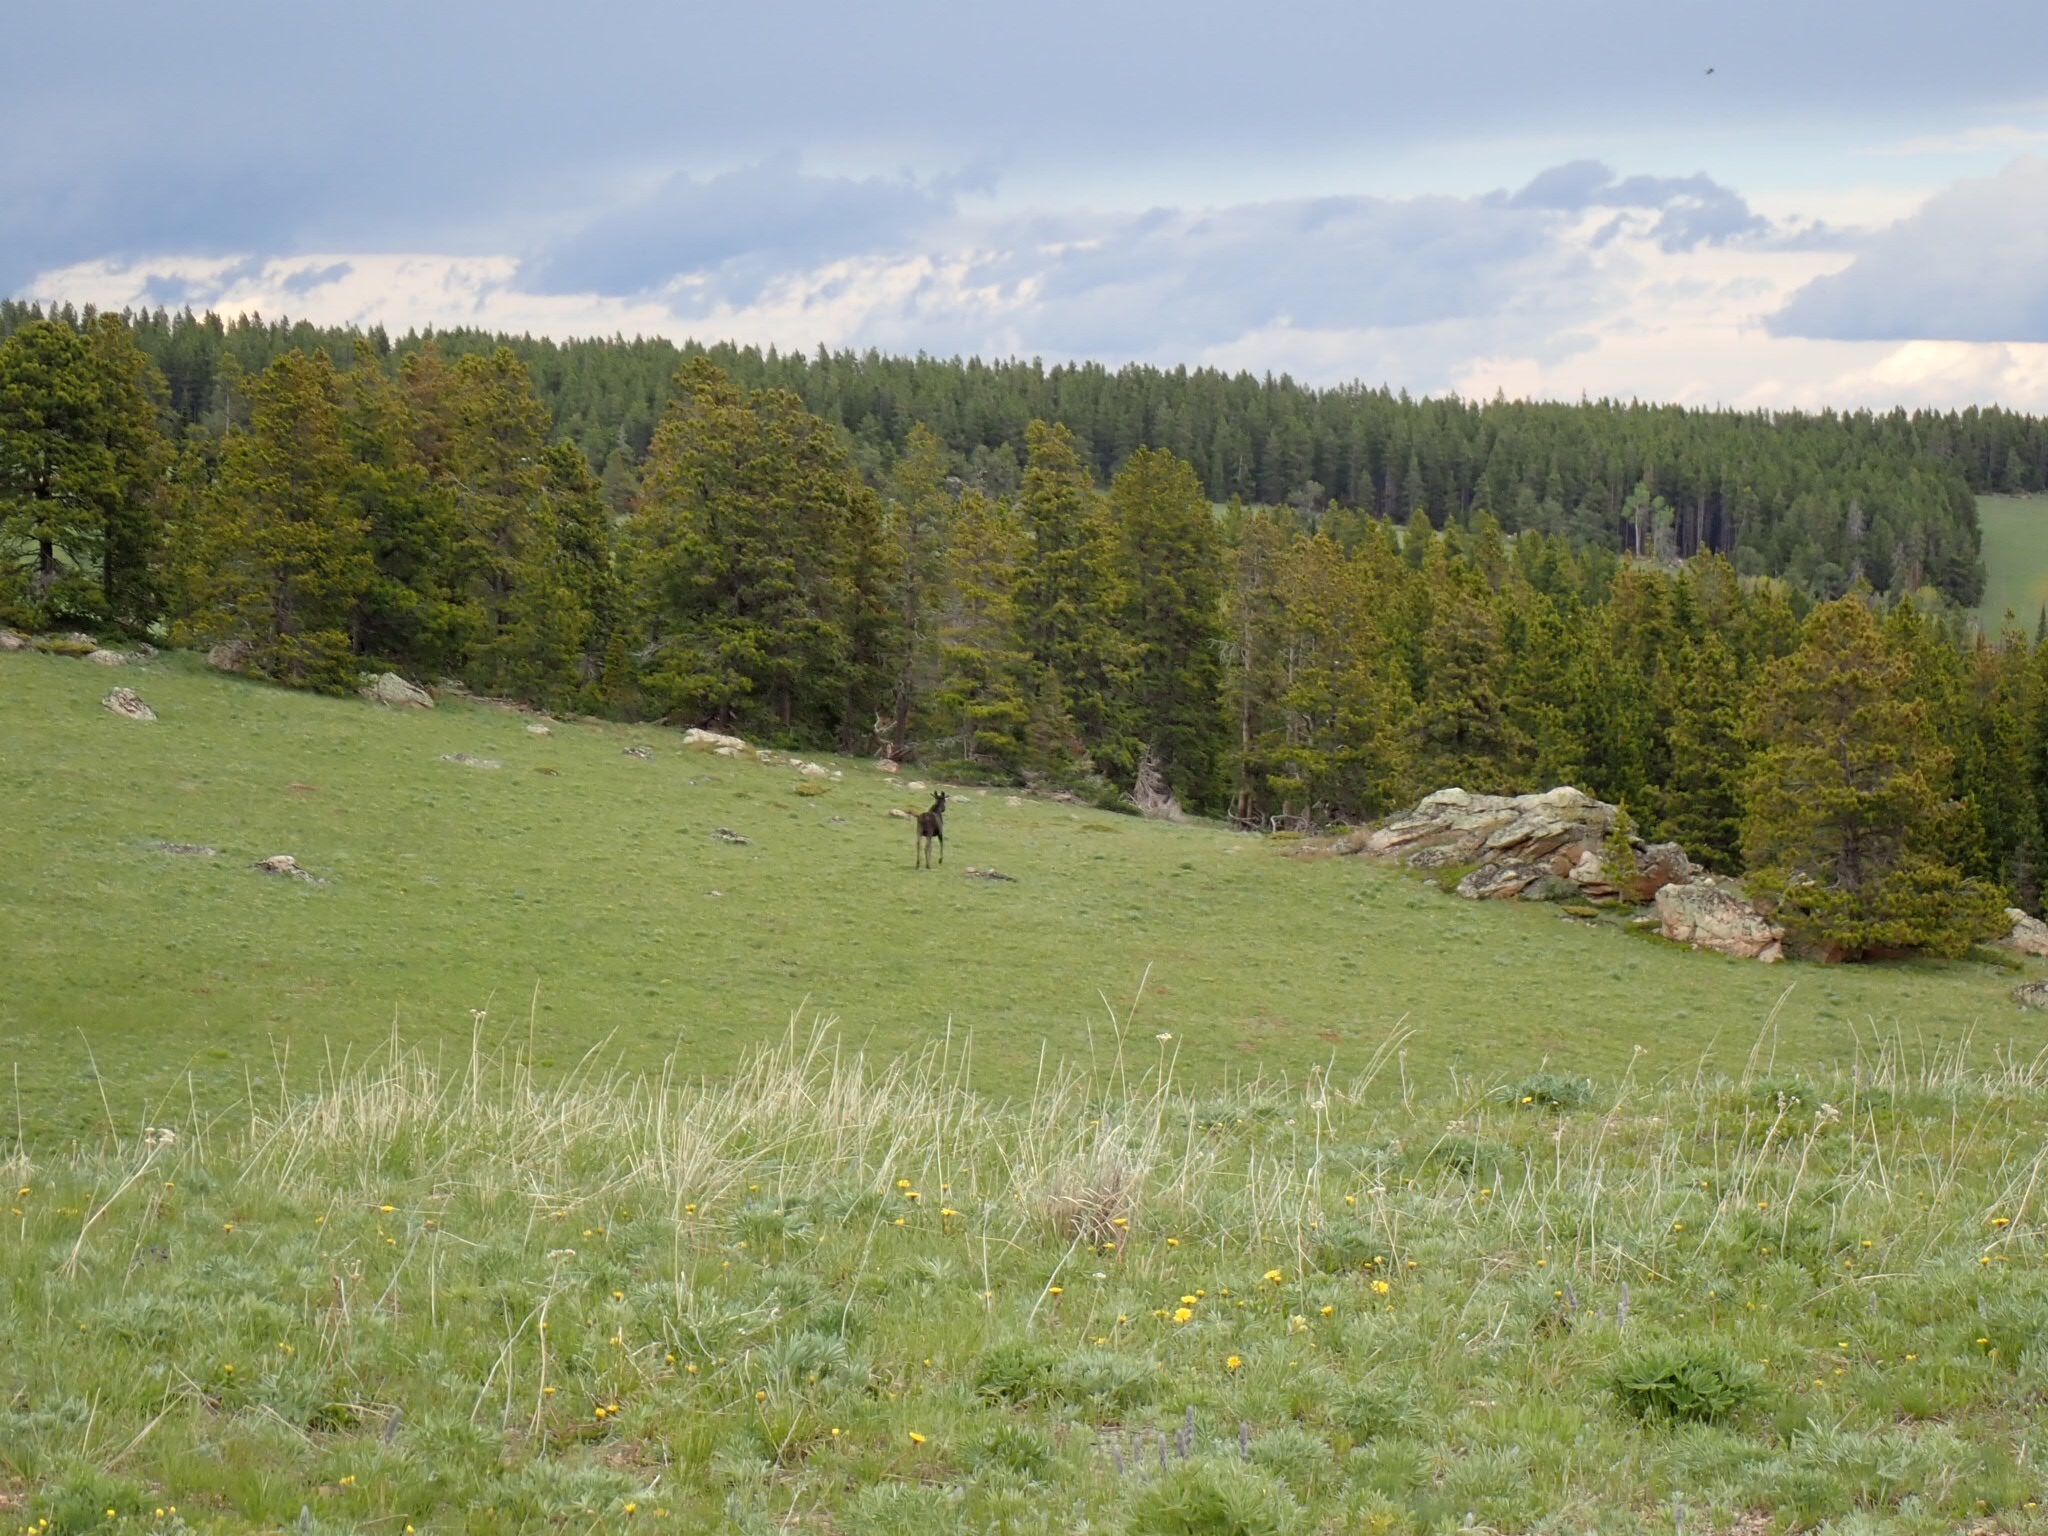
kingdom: Animalia
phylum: Chordata
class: Mammalia
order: Artiodactyla
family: Cervidae
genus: Alces
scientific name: Alces alces
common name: Moose
